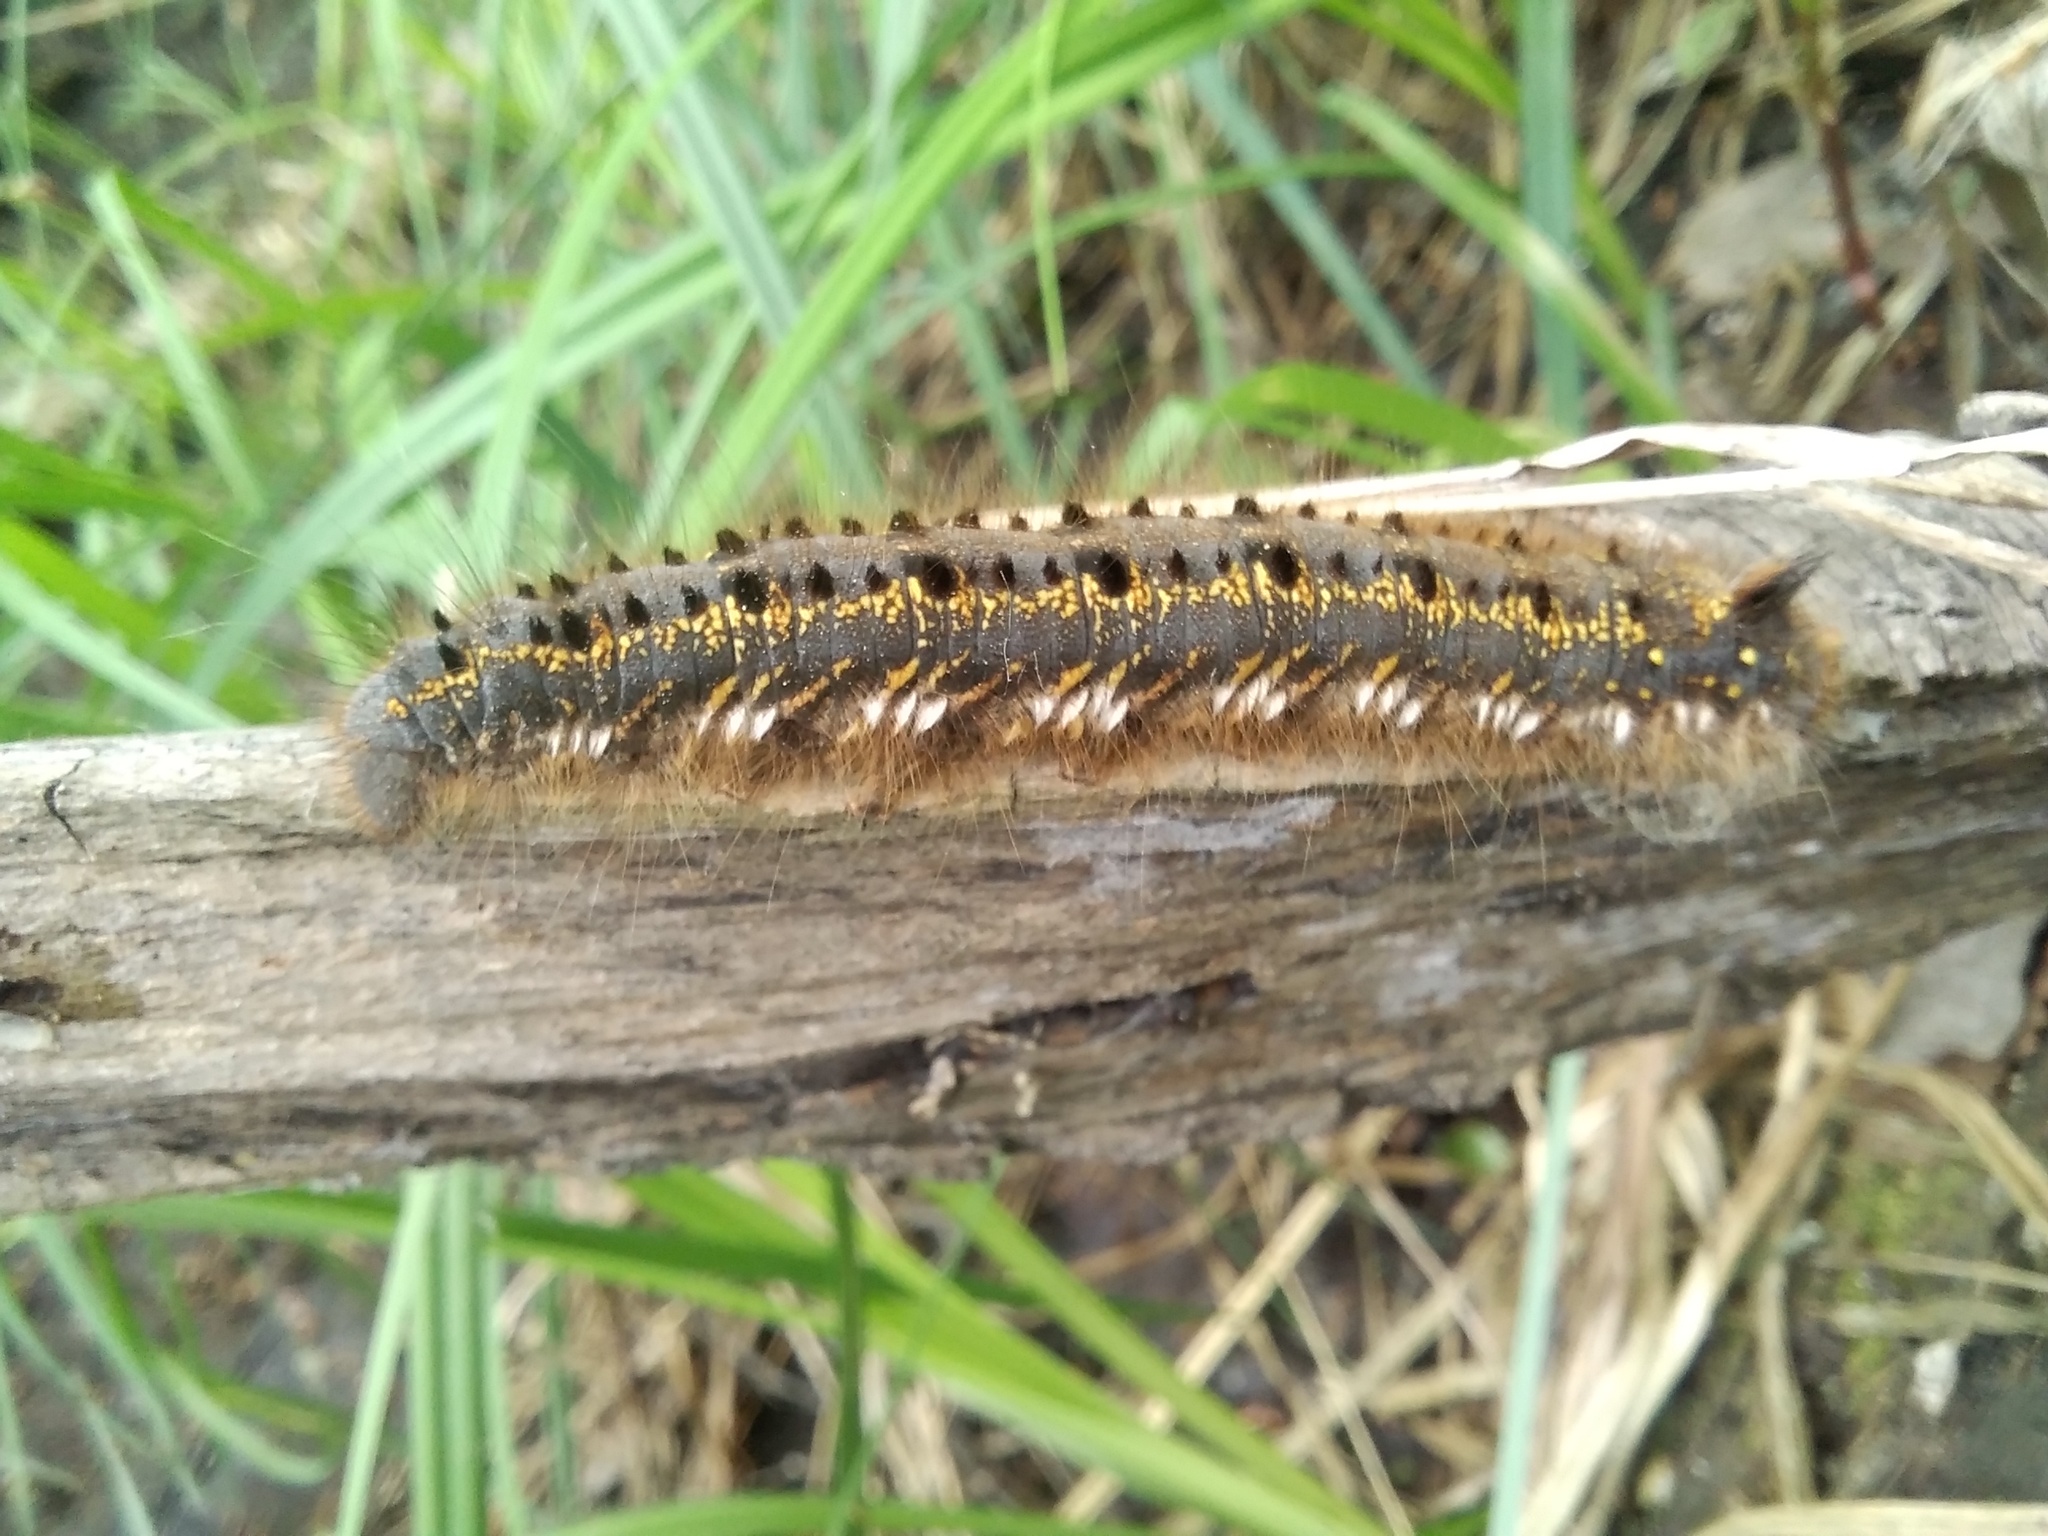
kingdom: Animalia
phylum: Arthropoda
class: Insecta
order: Lepidoptera
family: Lasiocampidae
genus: Euthrix
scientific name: Euthrix potatoria
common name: Drinker
